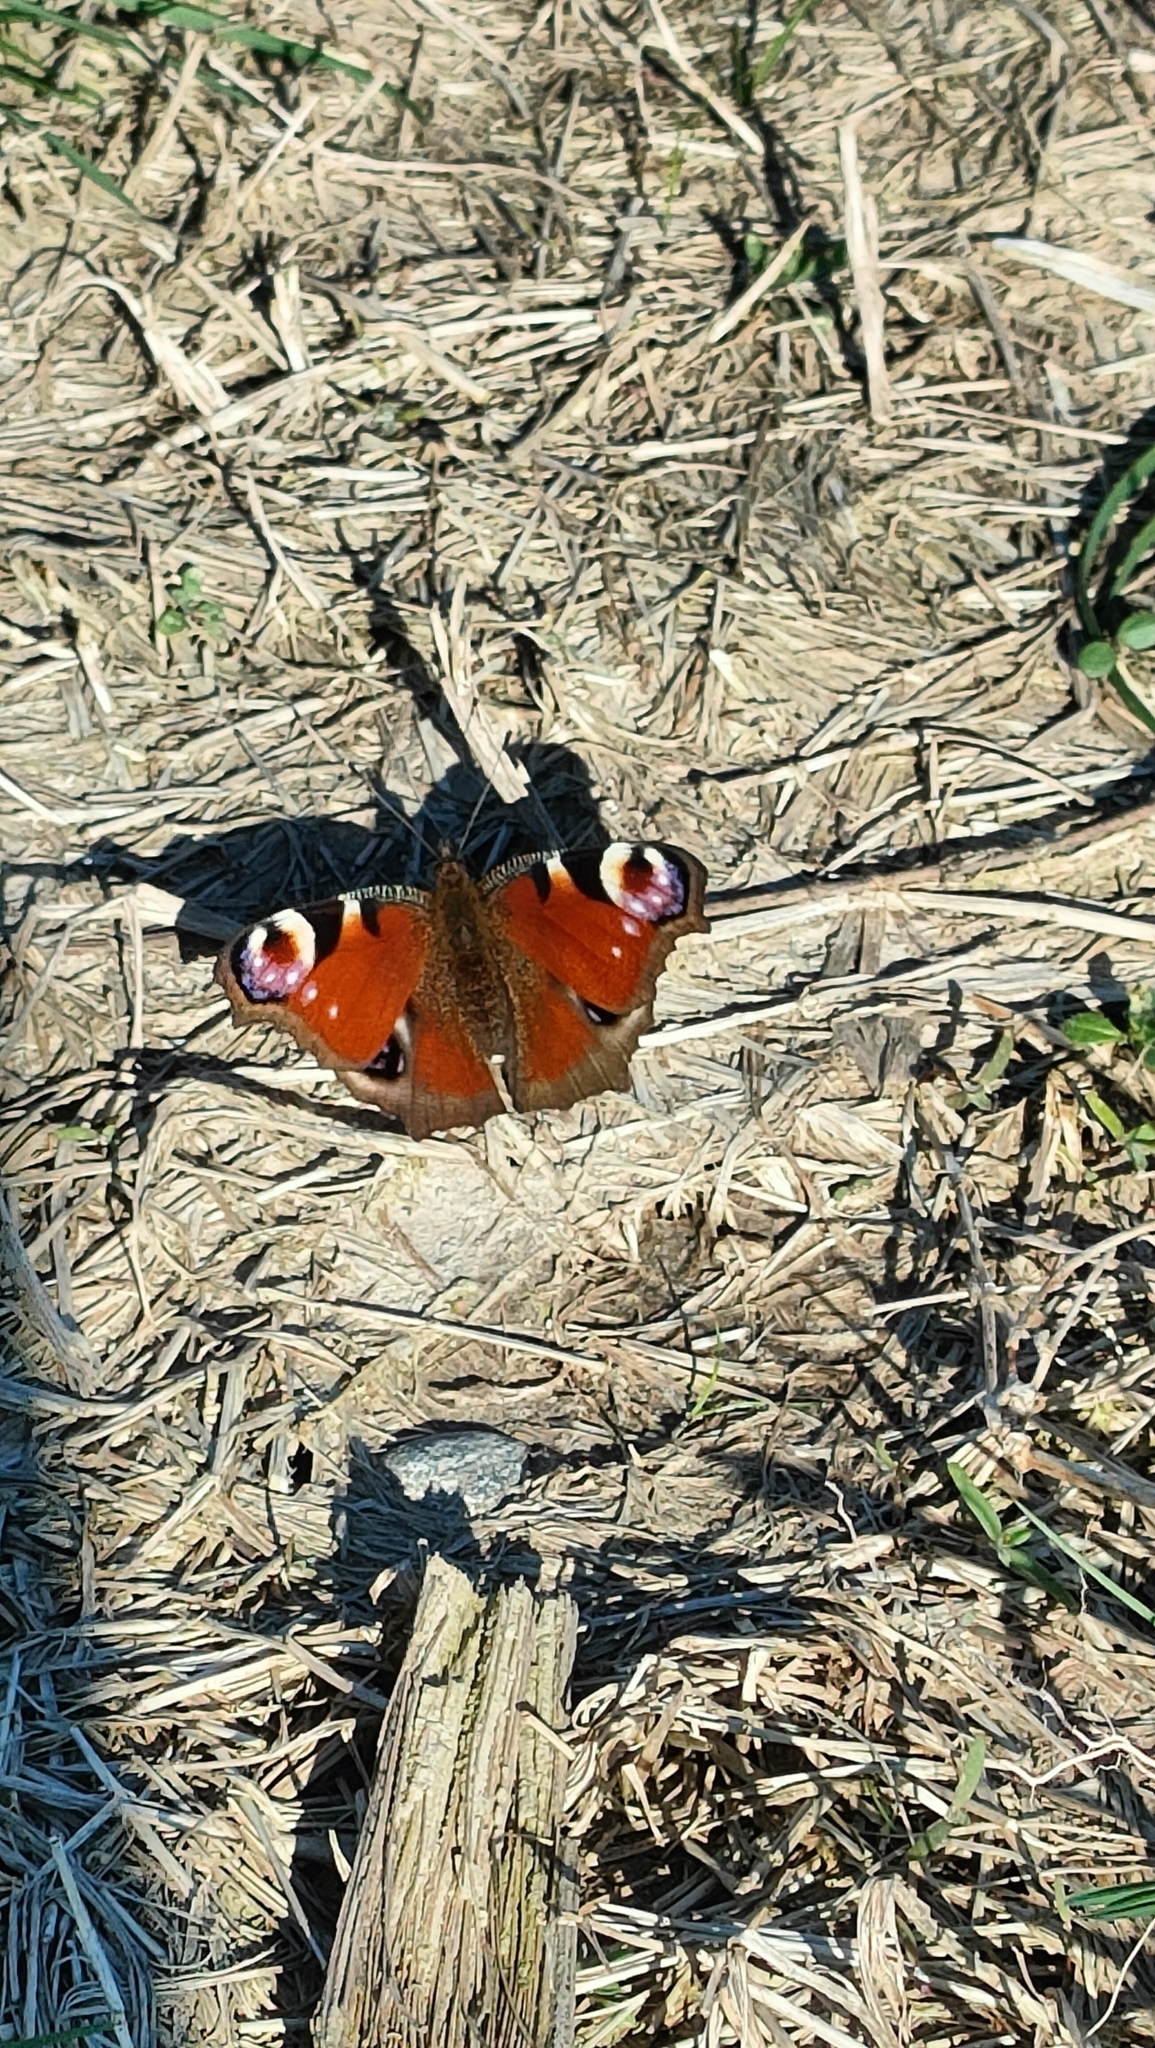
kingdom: Animalia
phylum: Arthropoda
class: Insecta
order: Lepidoptera
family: Nymphalidae
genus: Aglais
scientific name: Aglais io
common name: Peacock
